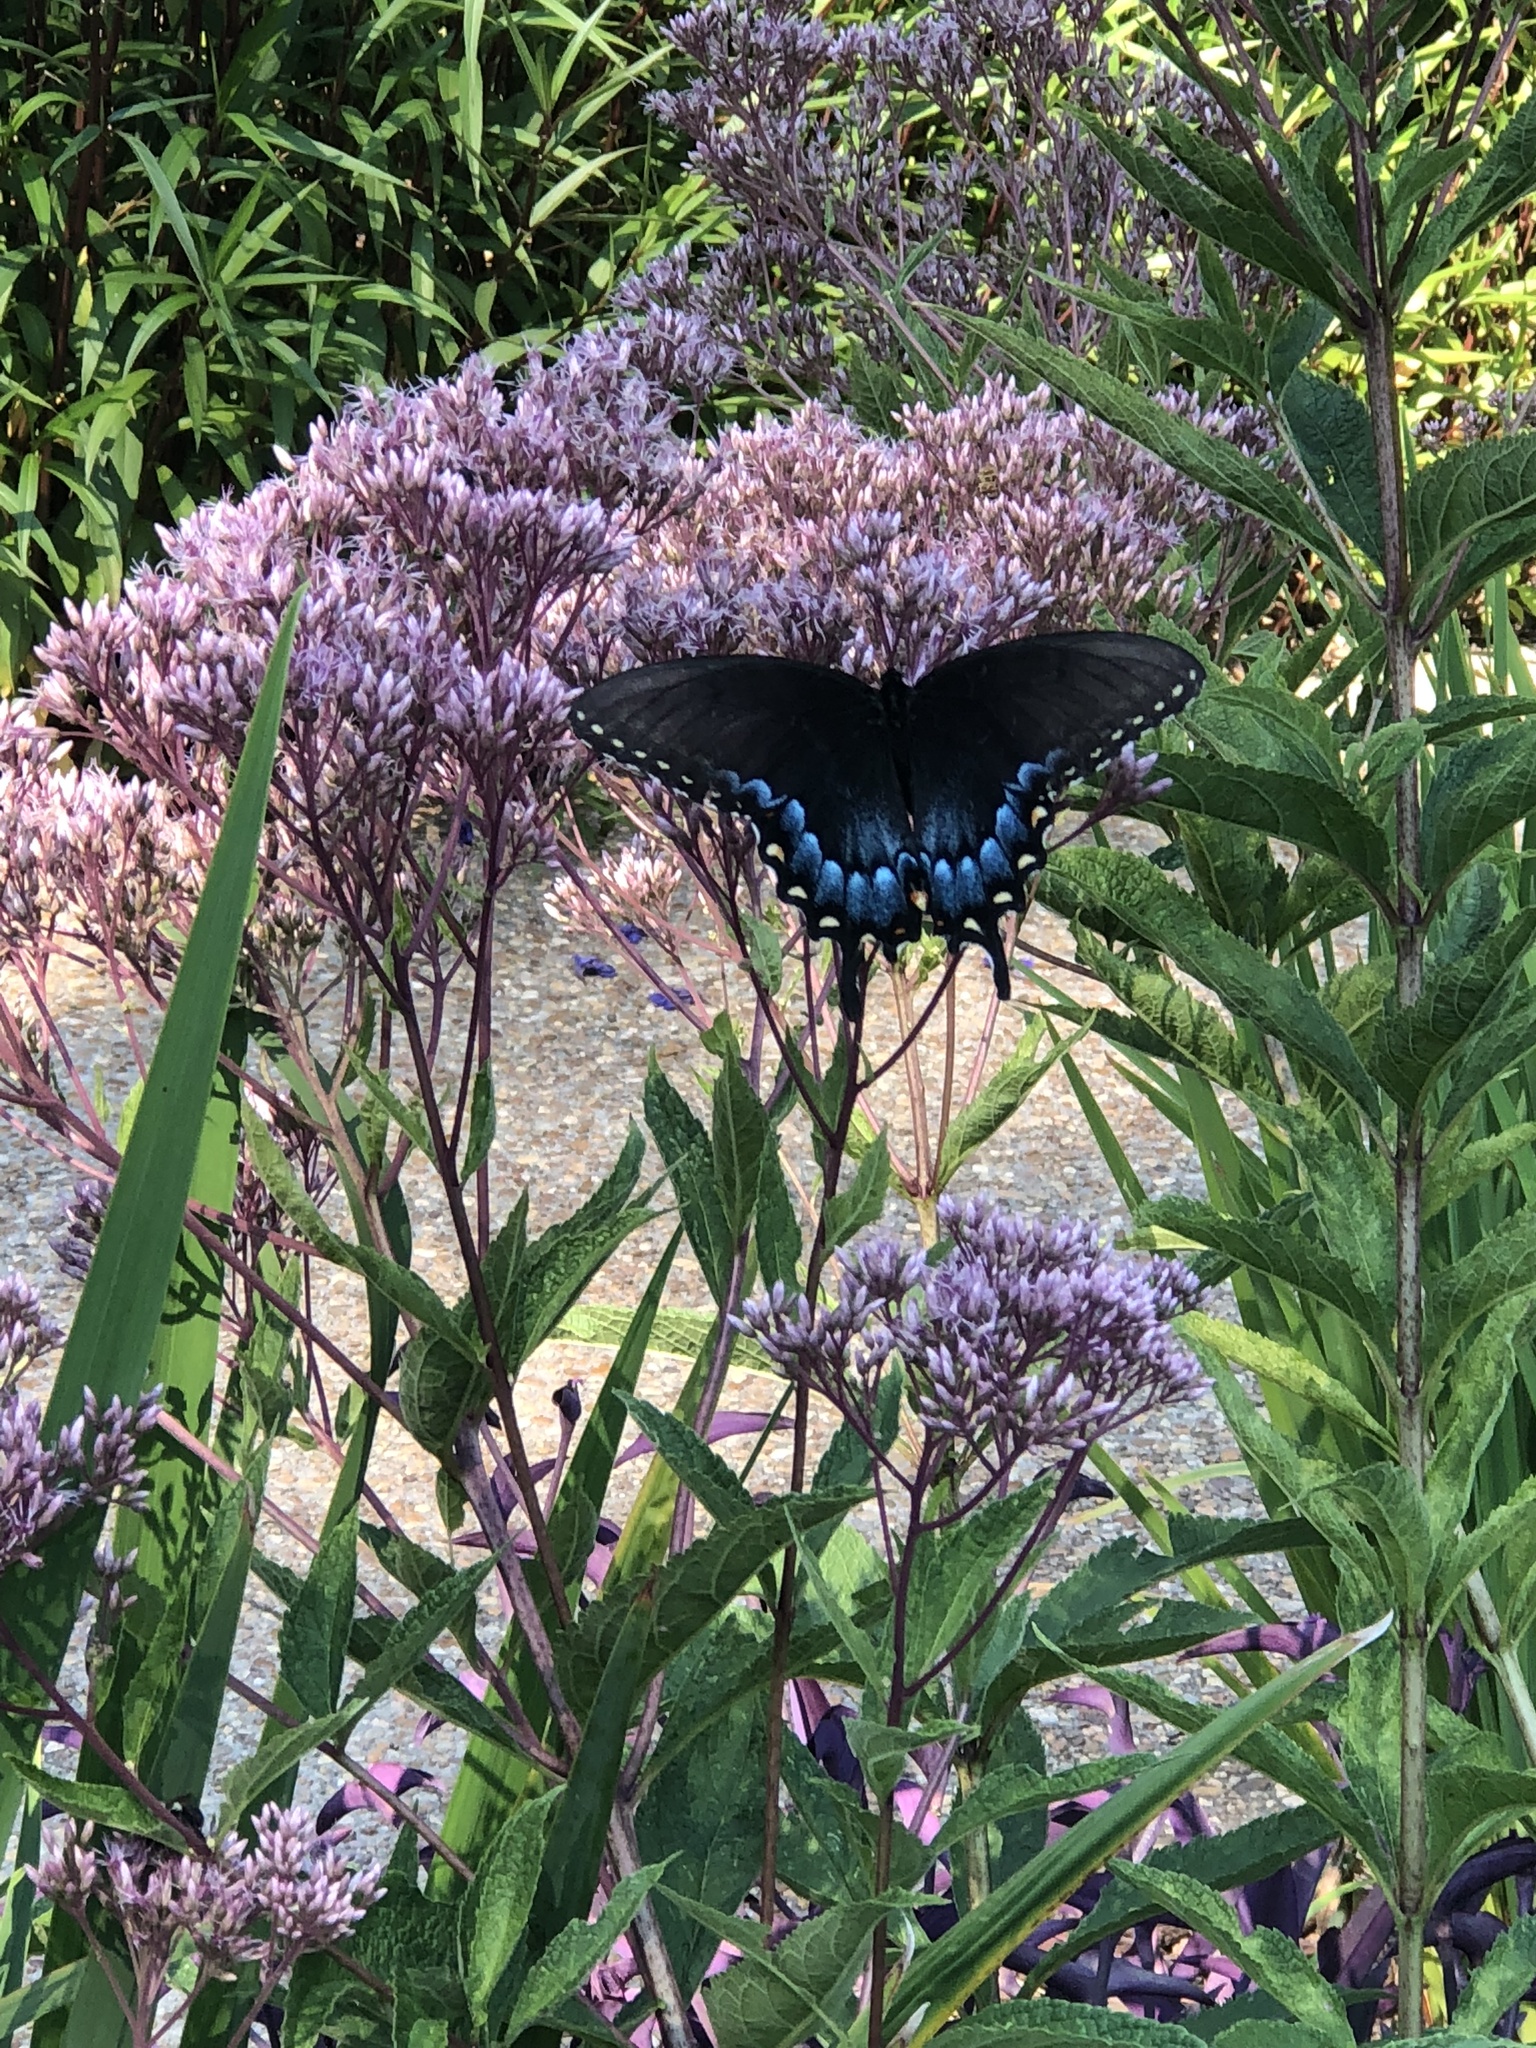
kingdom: Animalia
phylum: Arthropoda
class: Insecta
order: Lepidoptera
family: Papilionidae
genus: Papilio
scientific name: Papilio glaucus
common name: Tiger swallowtail
